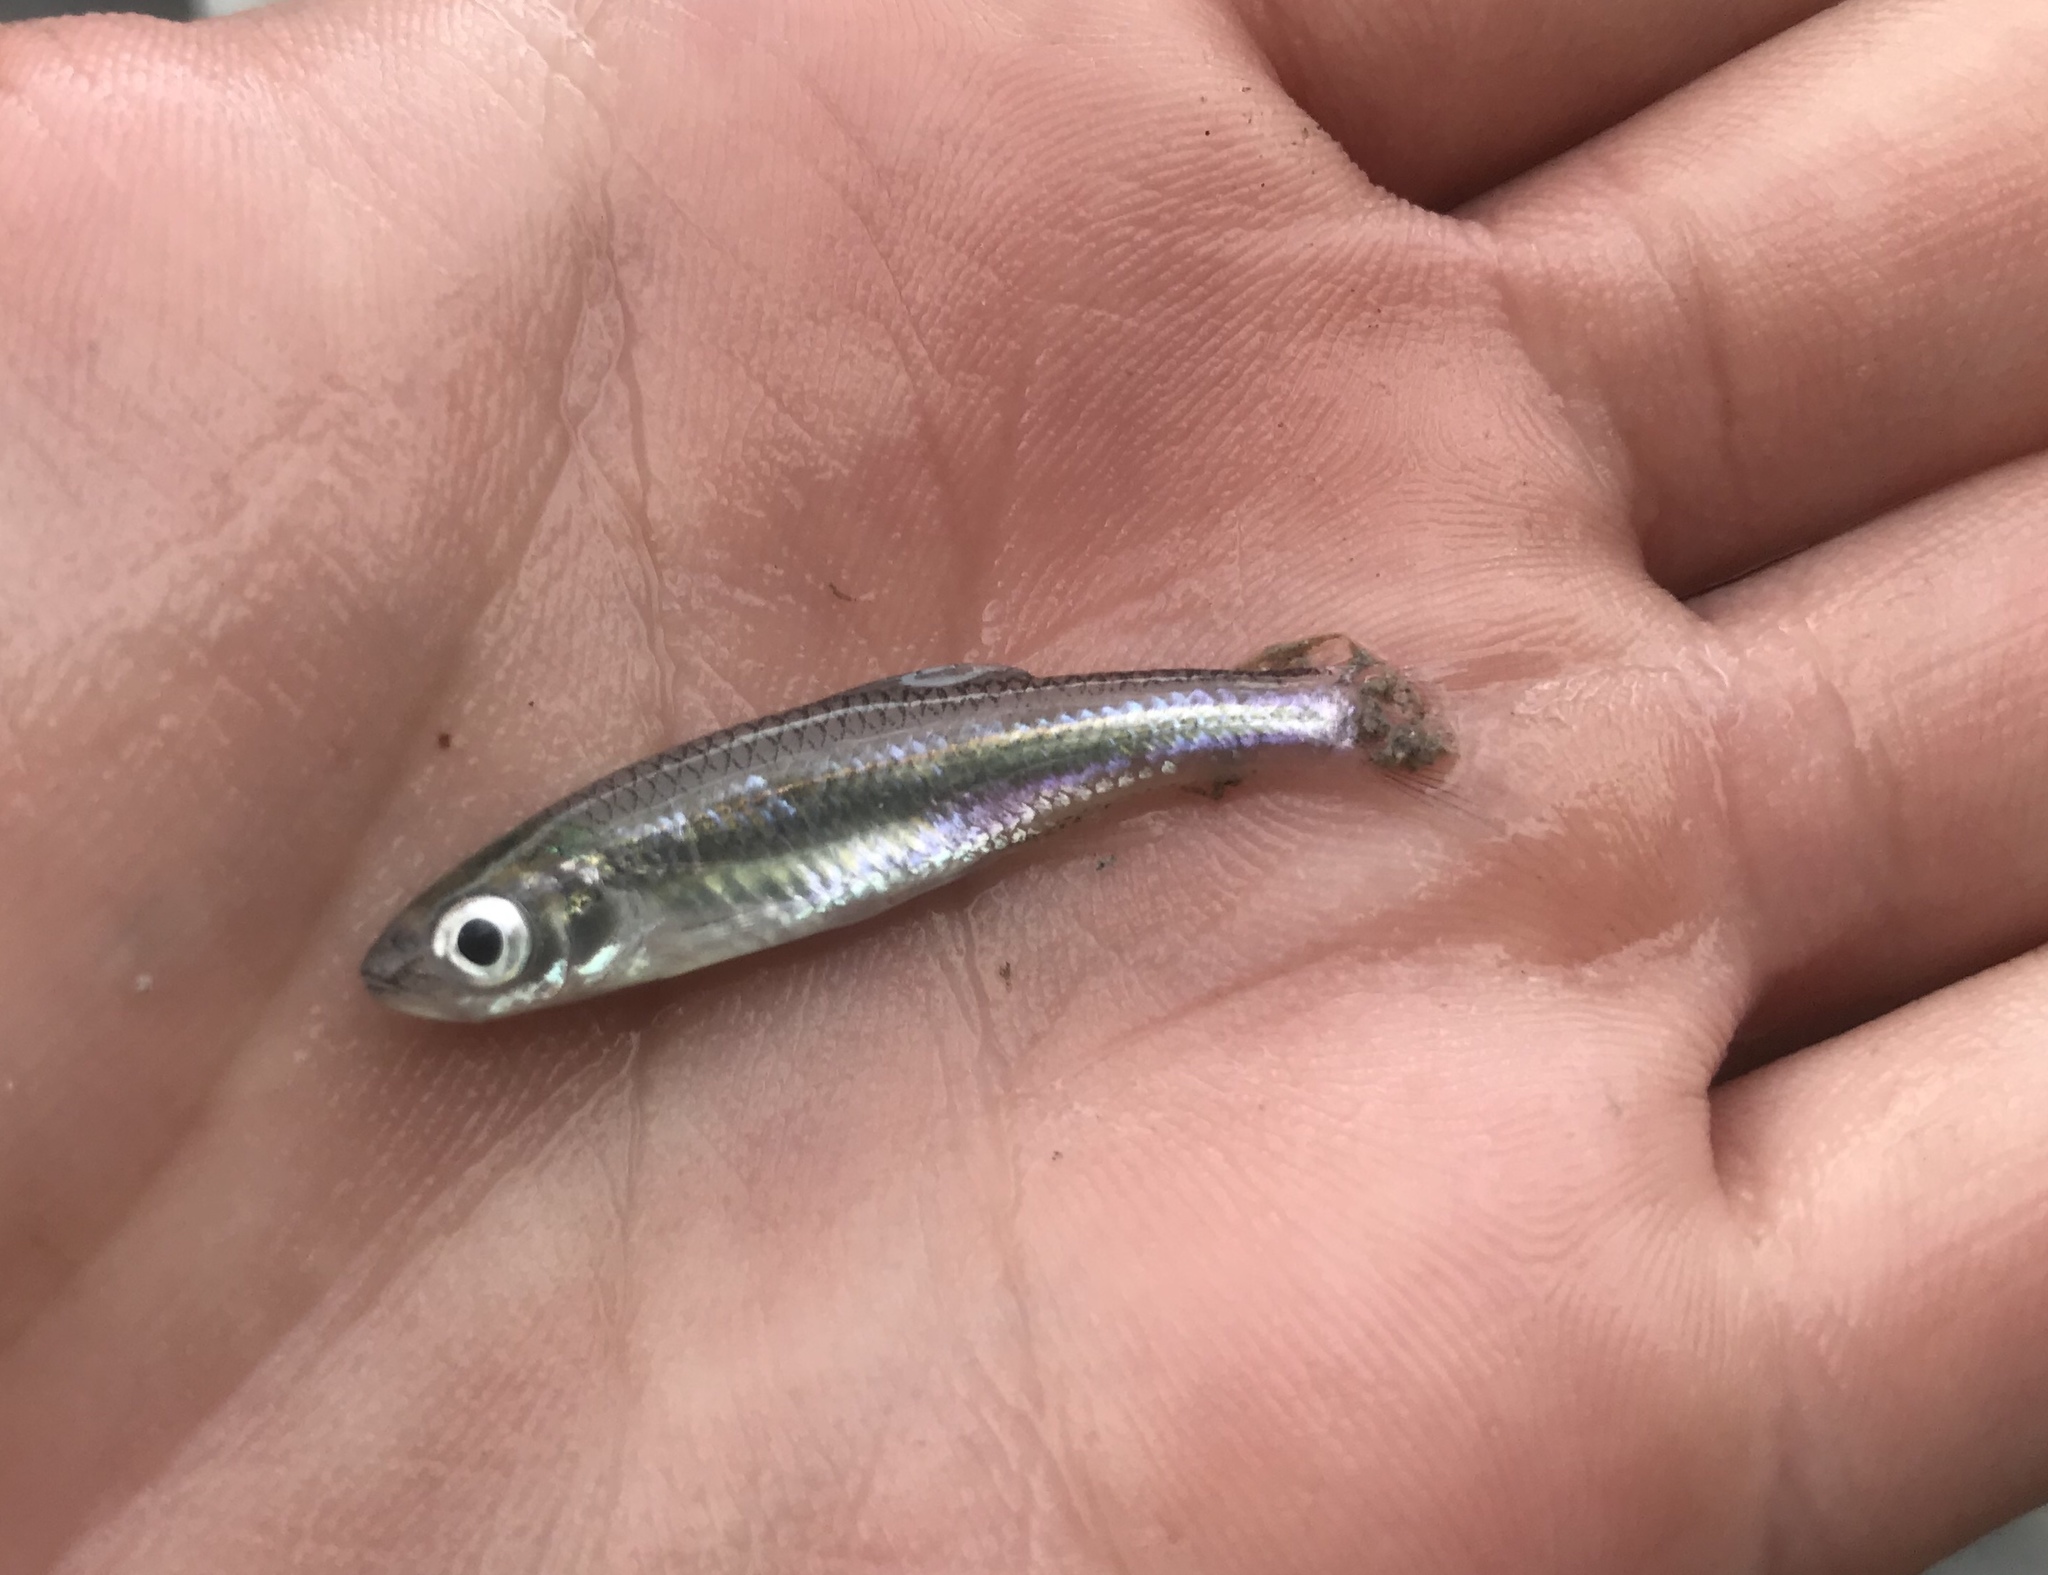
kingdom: Animalia
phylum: Chordata
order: Cypriniformes
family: Cyprinidae
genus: Notropis
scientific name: Notropis amabilis
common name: Texas shiner
